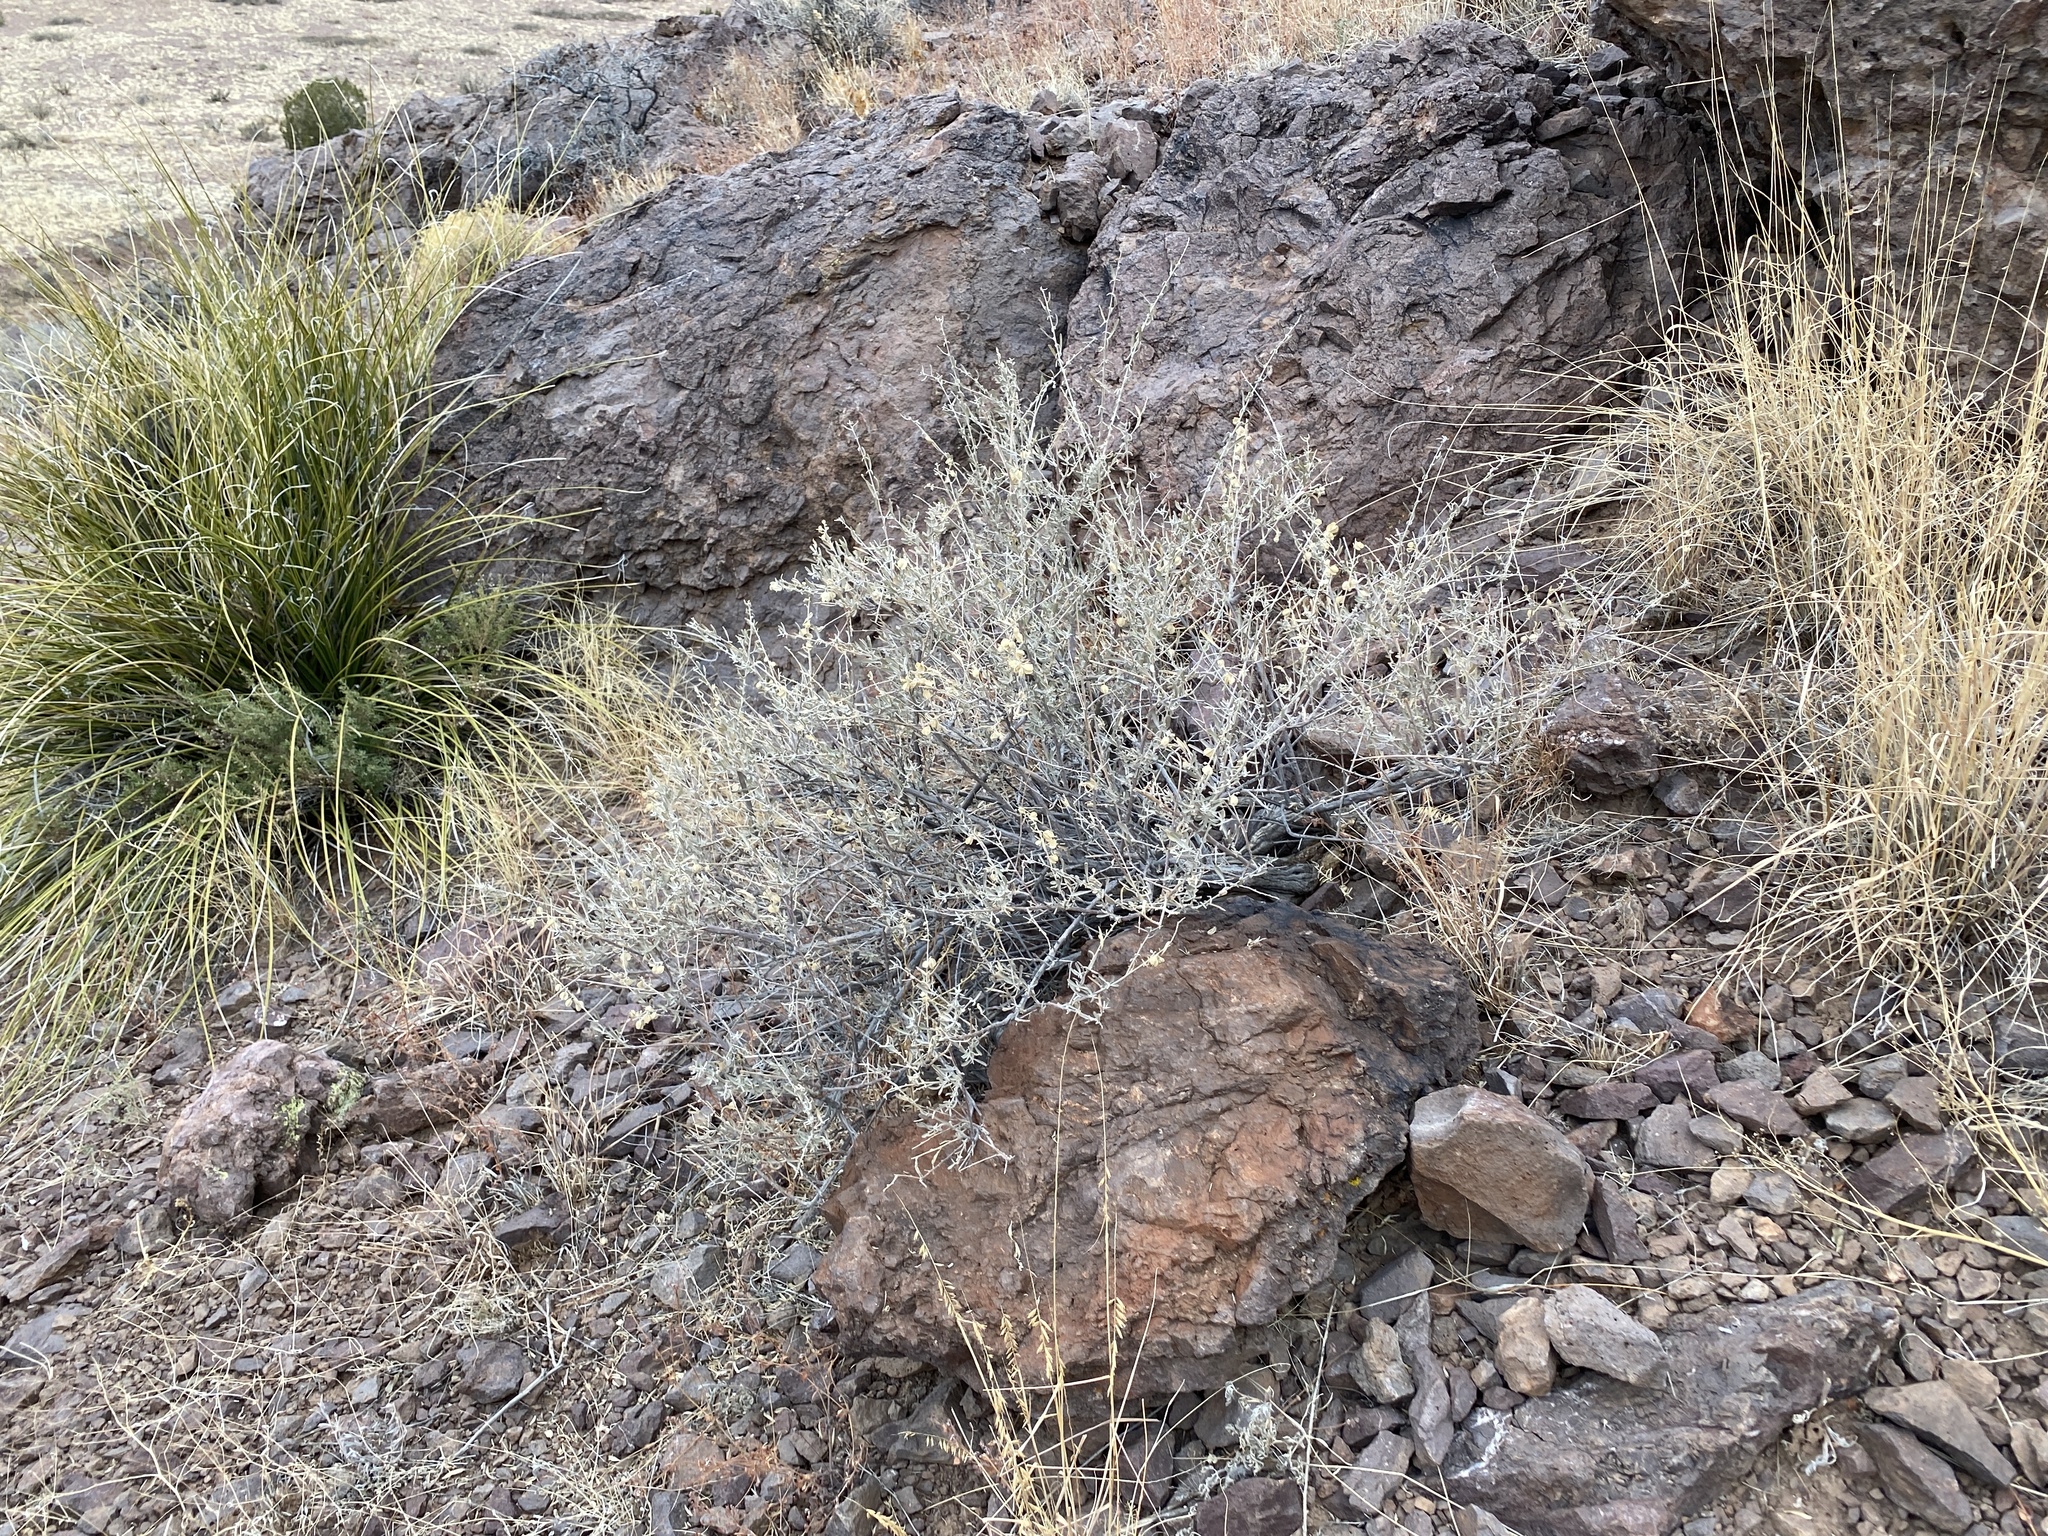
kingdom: Plantae
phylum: Tracheophyta
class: Magnoliopsida
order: Caryophyllales
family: Amaranthaceae
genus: Atriplex
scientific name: Atriplex canescens
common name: Four-wing saltbush
